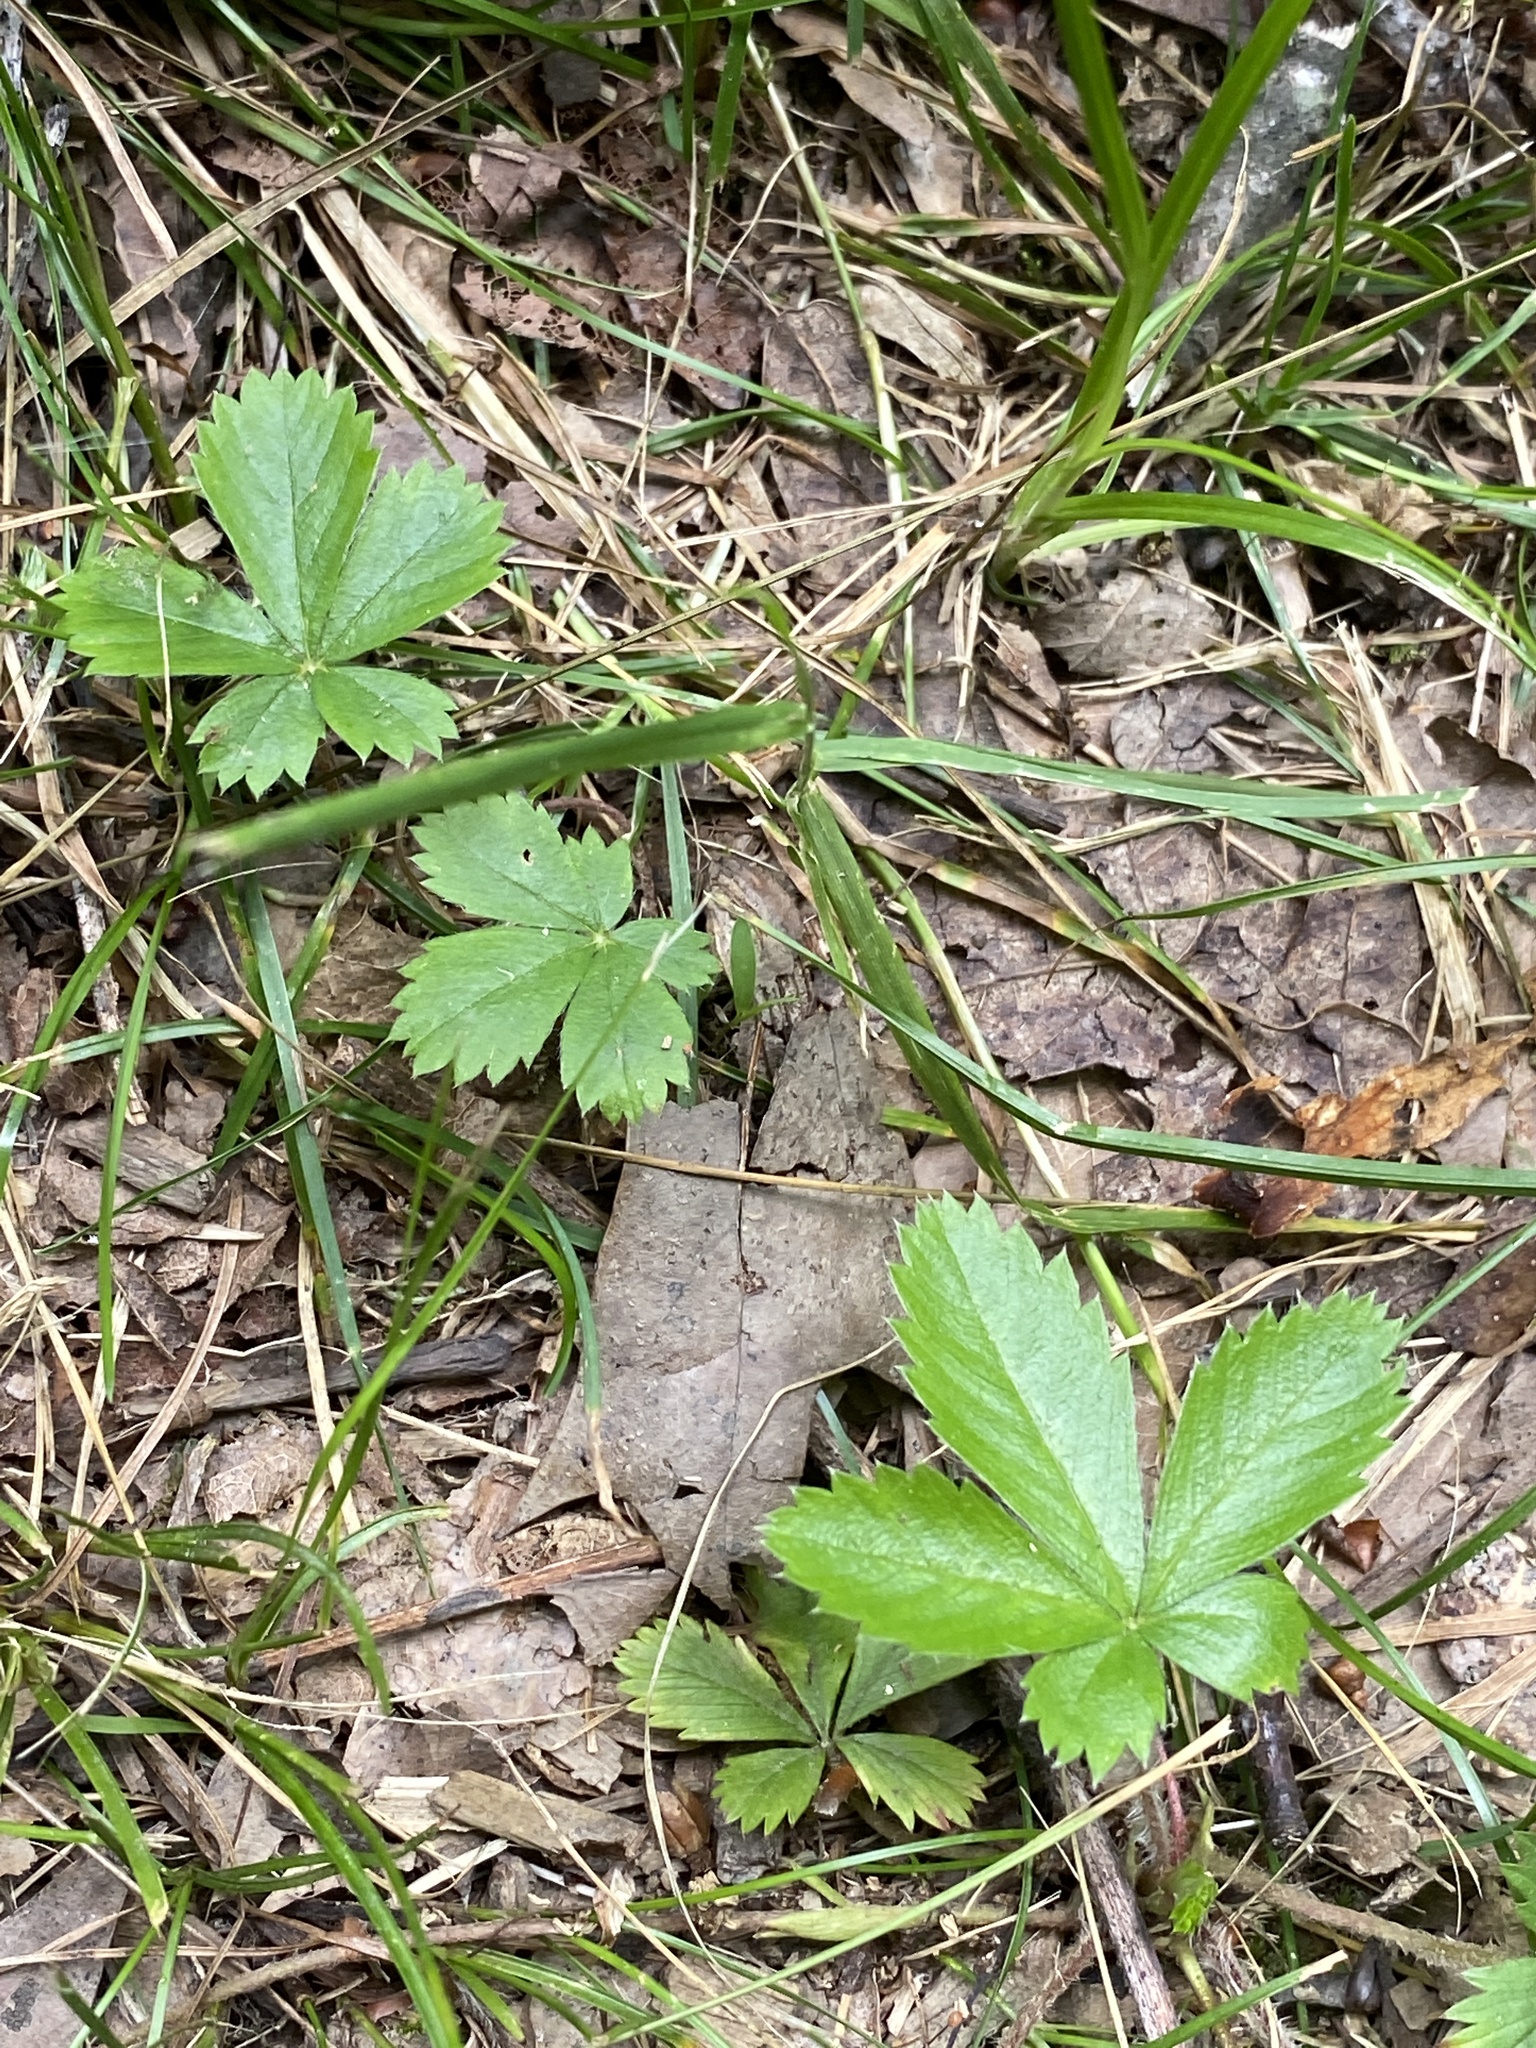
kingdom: Plantae
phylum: Tracheophyta
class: Magnoliopsida
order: Rosales
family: Rosaceae
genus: Potentilla
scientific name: Potentilla canadensis
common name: Canada cinquefoil
